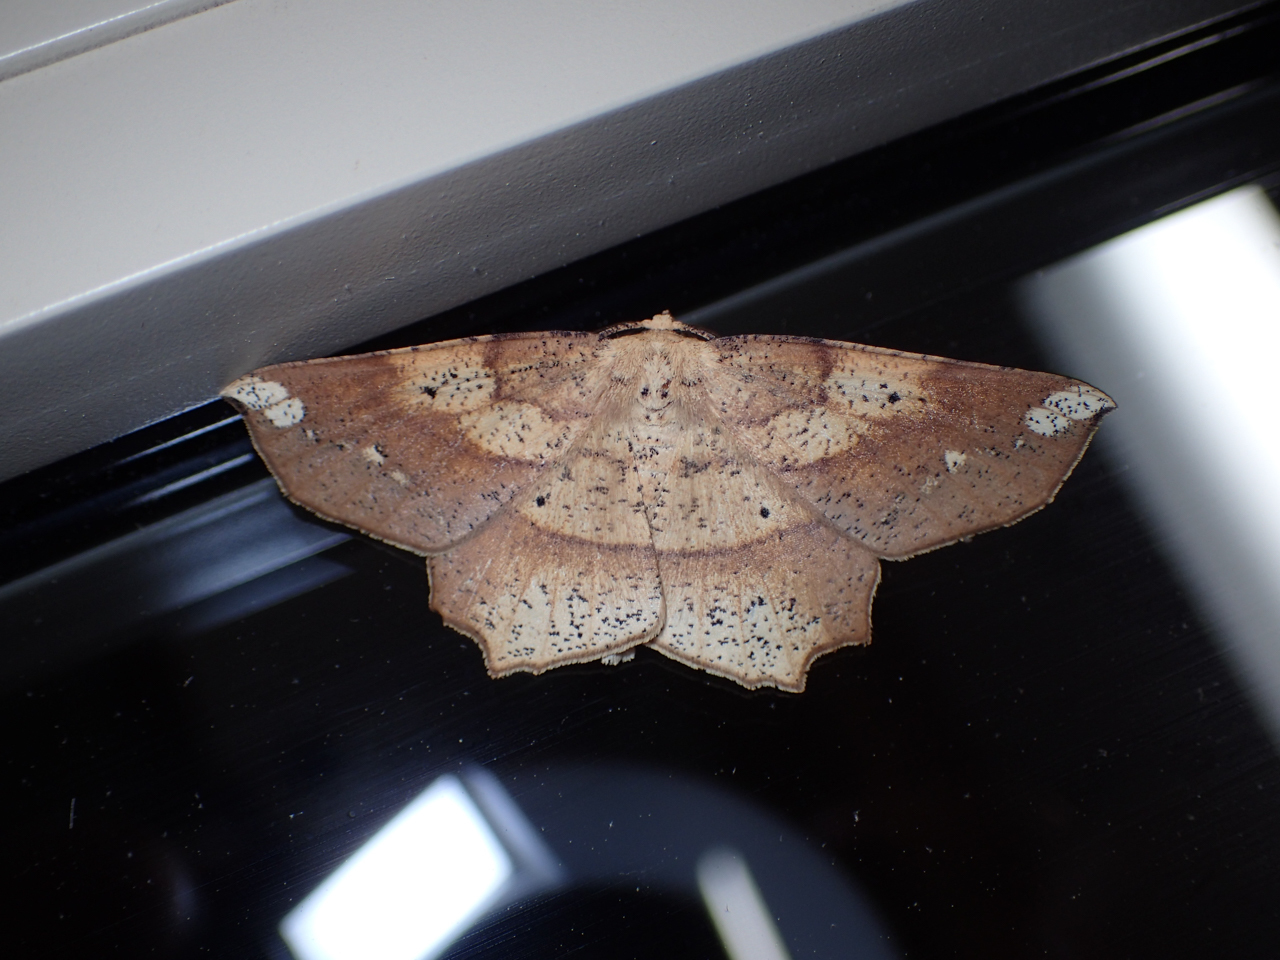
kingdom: Animalia
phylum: Arthropoda
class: Insecta
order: Lepidoptera
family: Geometridae
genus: Euchlaena
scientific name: Euchlaena amoenaria
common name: Deep yellow euchlaena
